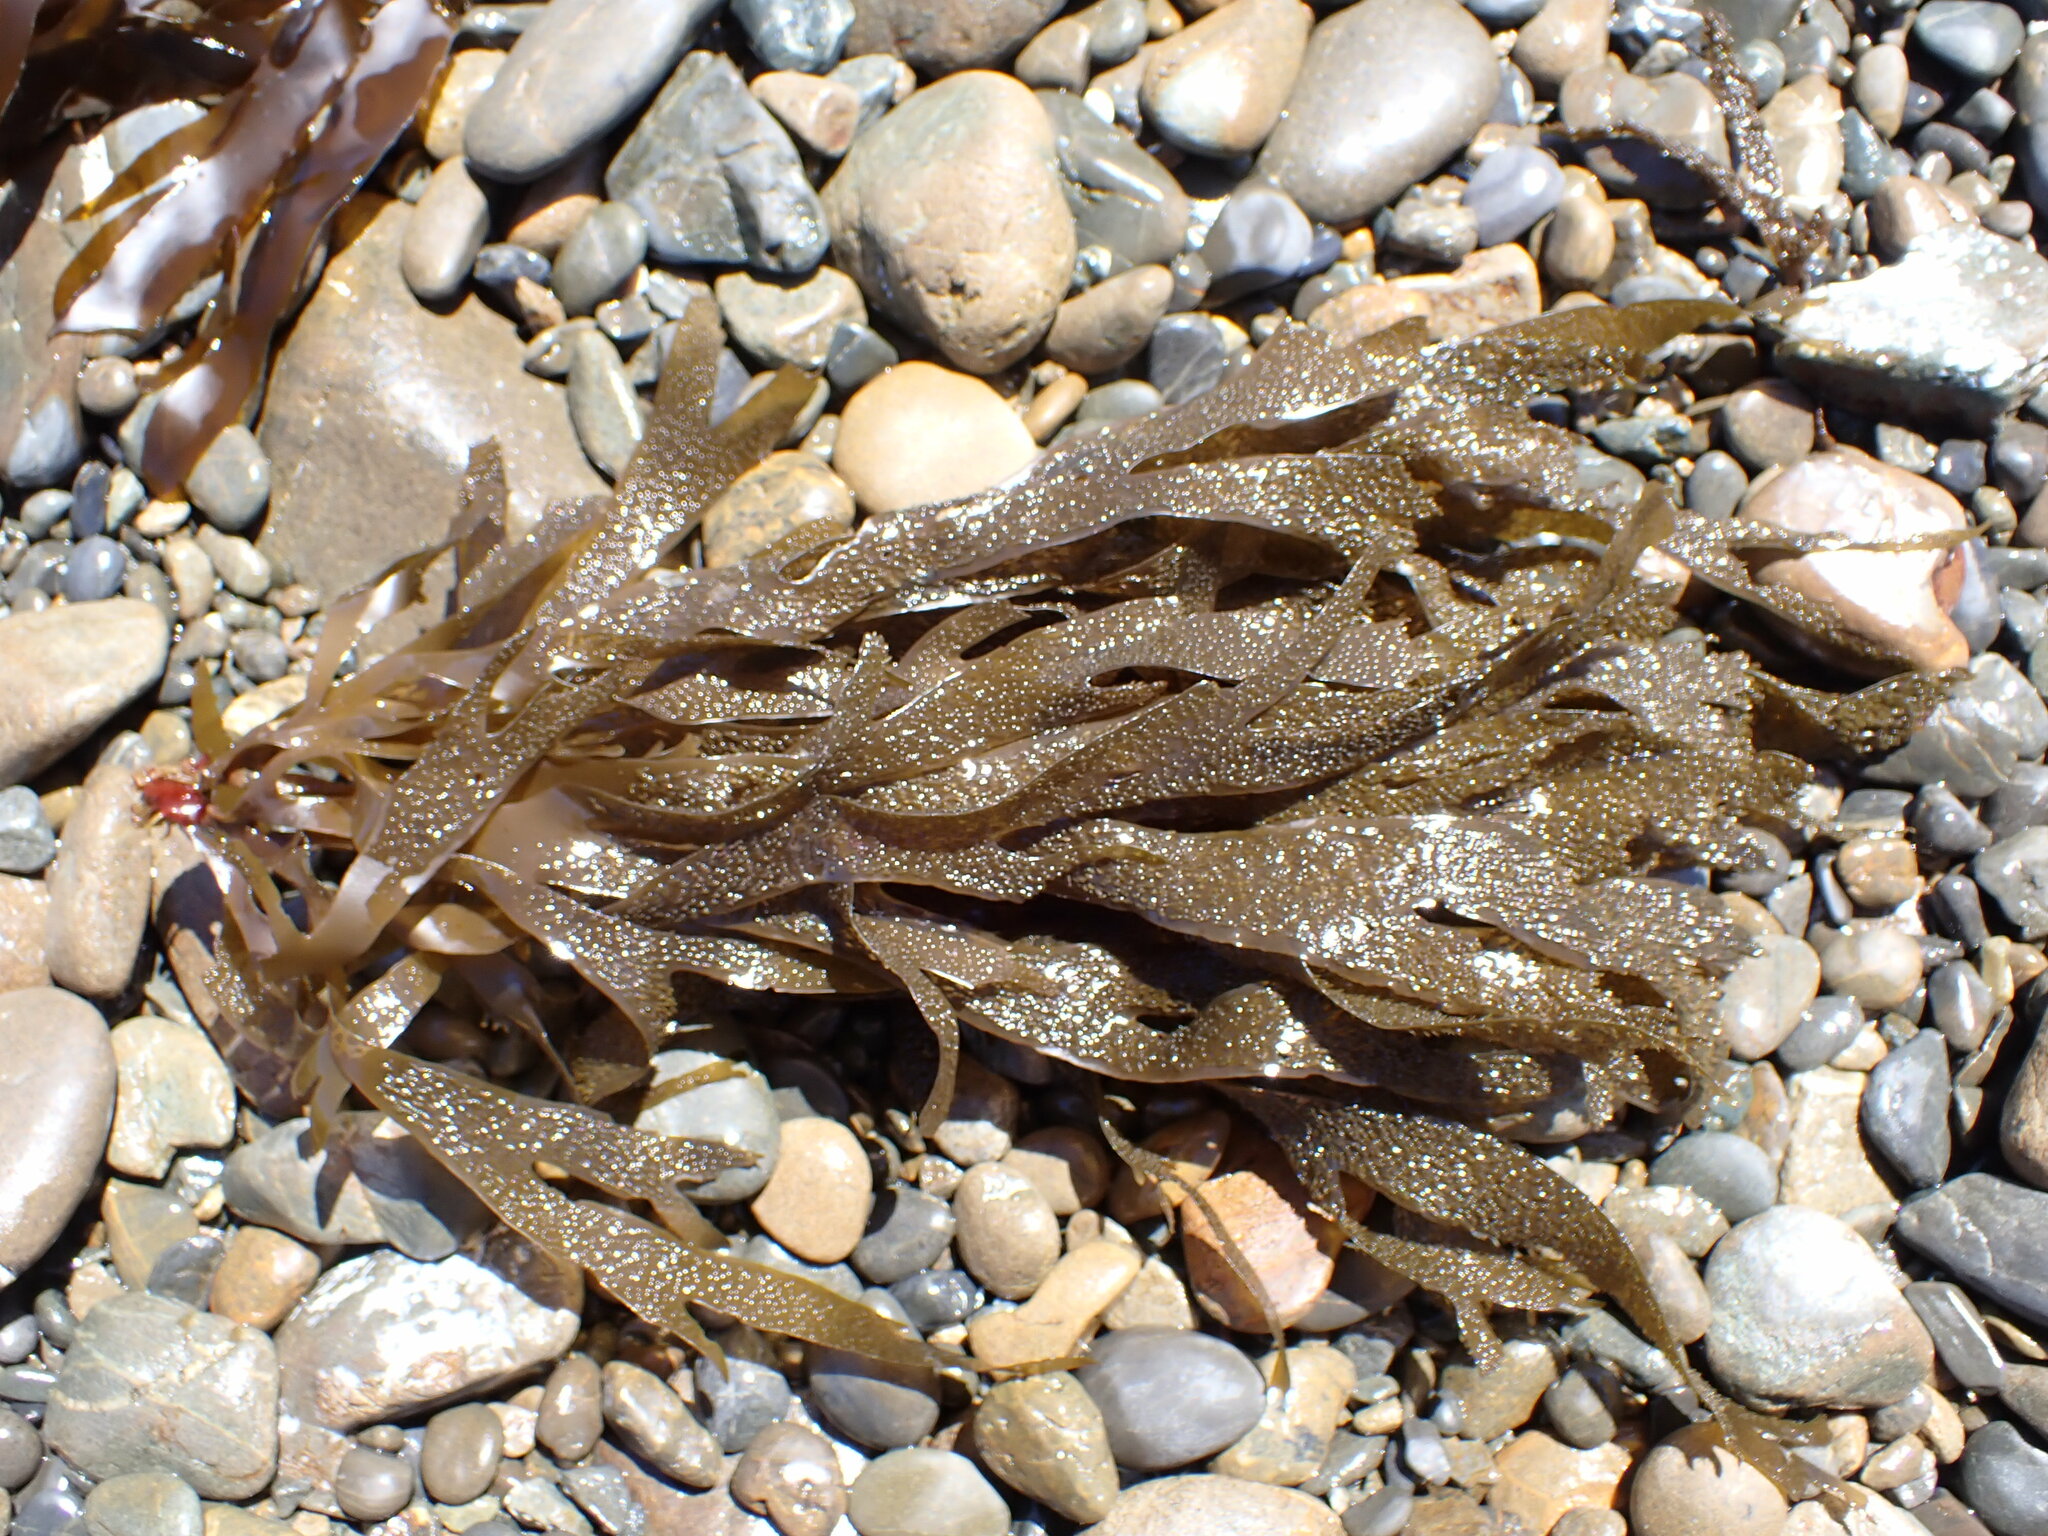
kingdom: Chromista
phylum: Ochrophyta
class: Phaeophyceae
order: Dictyotales
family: Dictyotaceae
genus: Dictyota
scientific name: Dictyota kunthii
